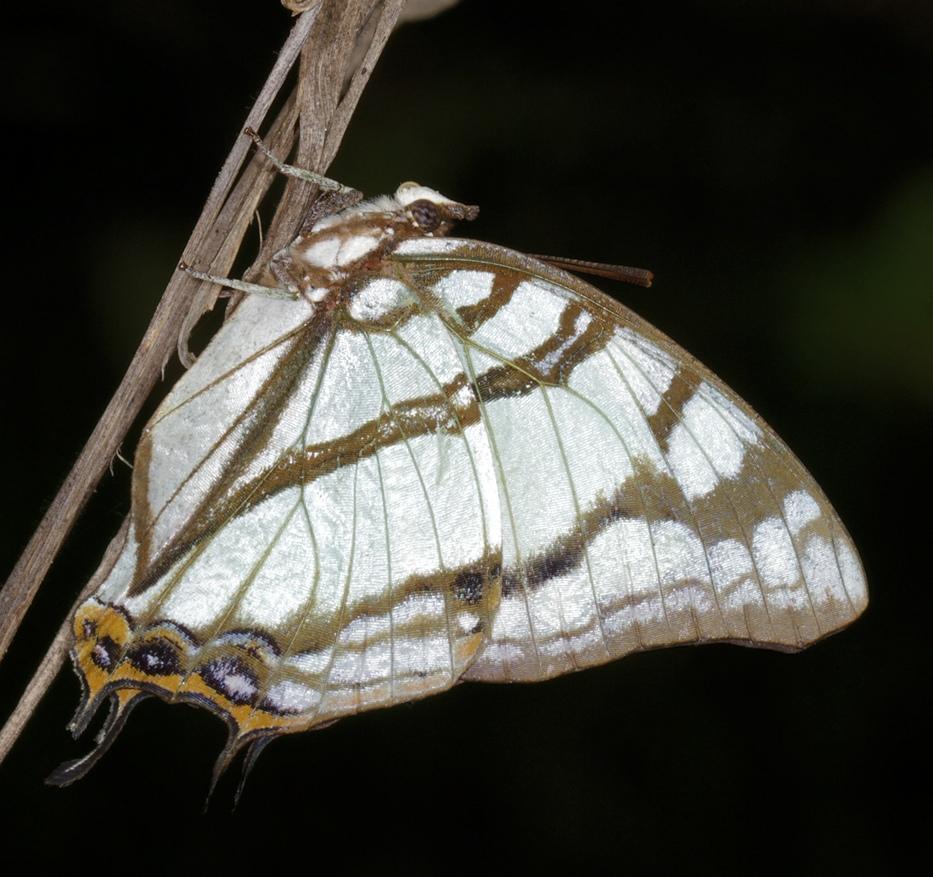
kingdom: Animalia
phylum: Arthropoda
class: Insecta
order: Lepidoptera
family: Nymphalidae
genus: Polyura
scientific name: Polyura
